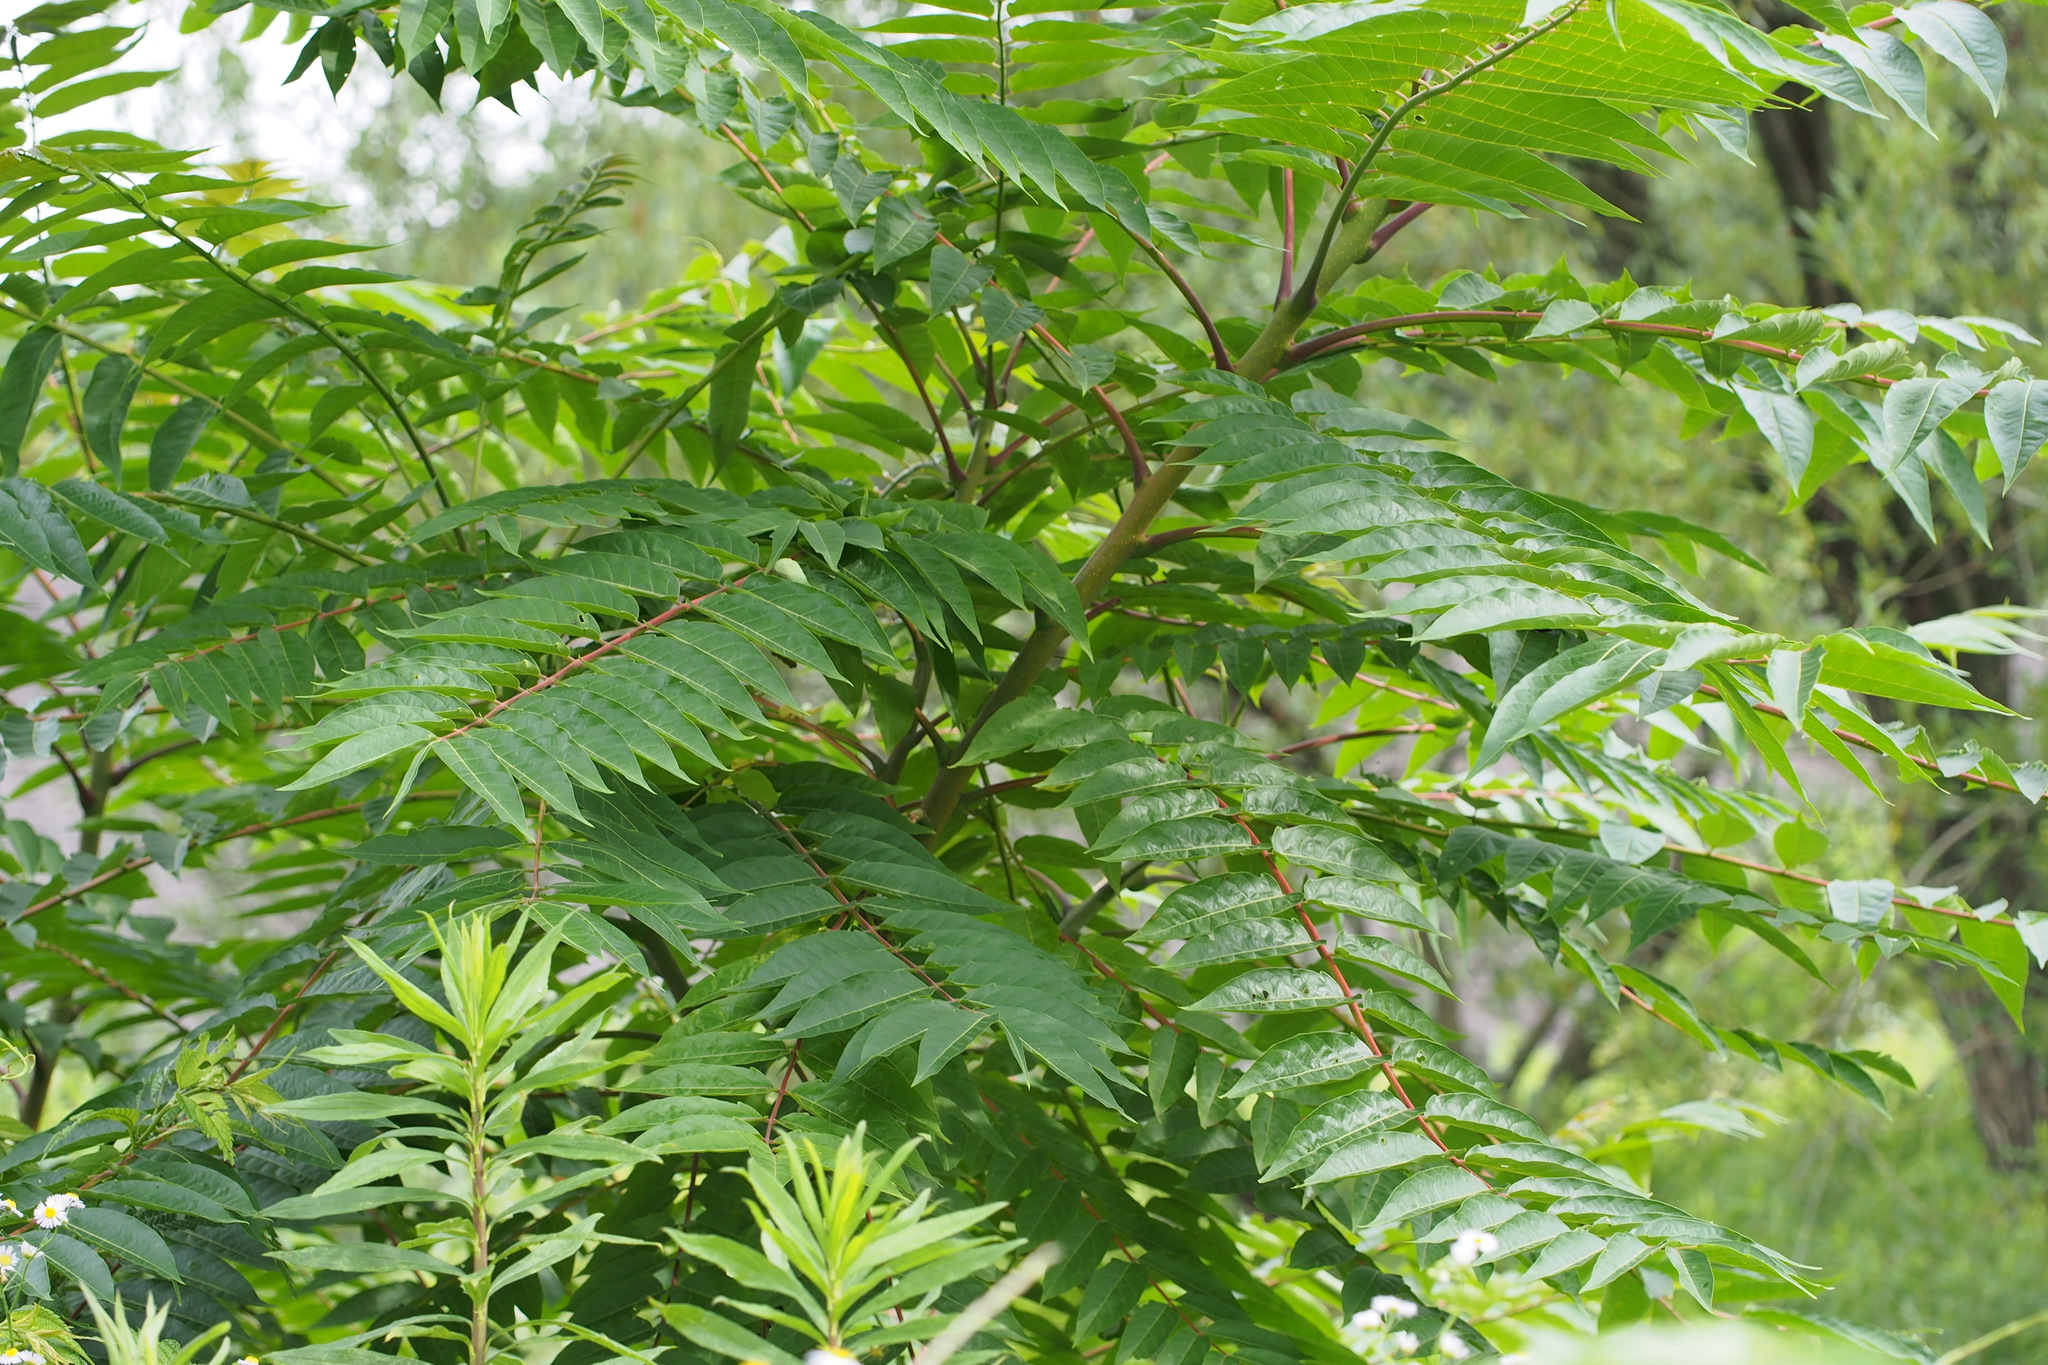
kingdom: Plantae
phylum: Tracheophyta
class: Magnoliopsida
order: Sapindales
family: Simaroubaceae
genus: Ailanthus
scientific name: Ailanthus altissima
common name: Tree-of-heaven
